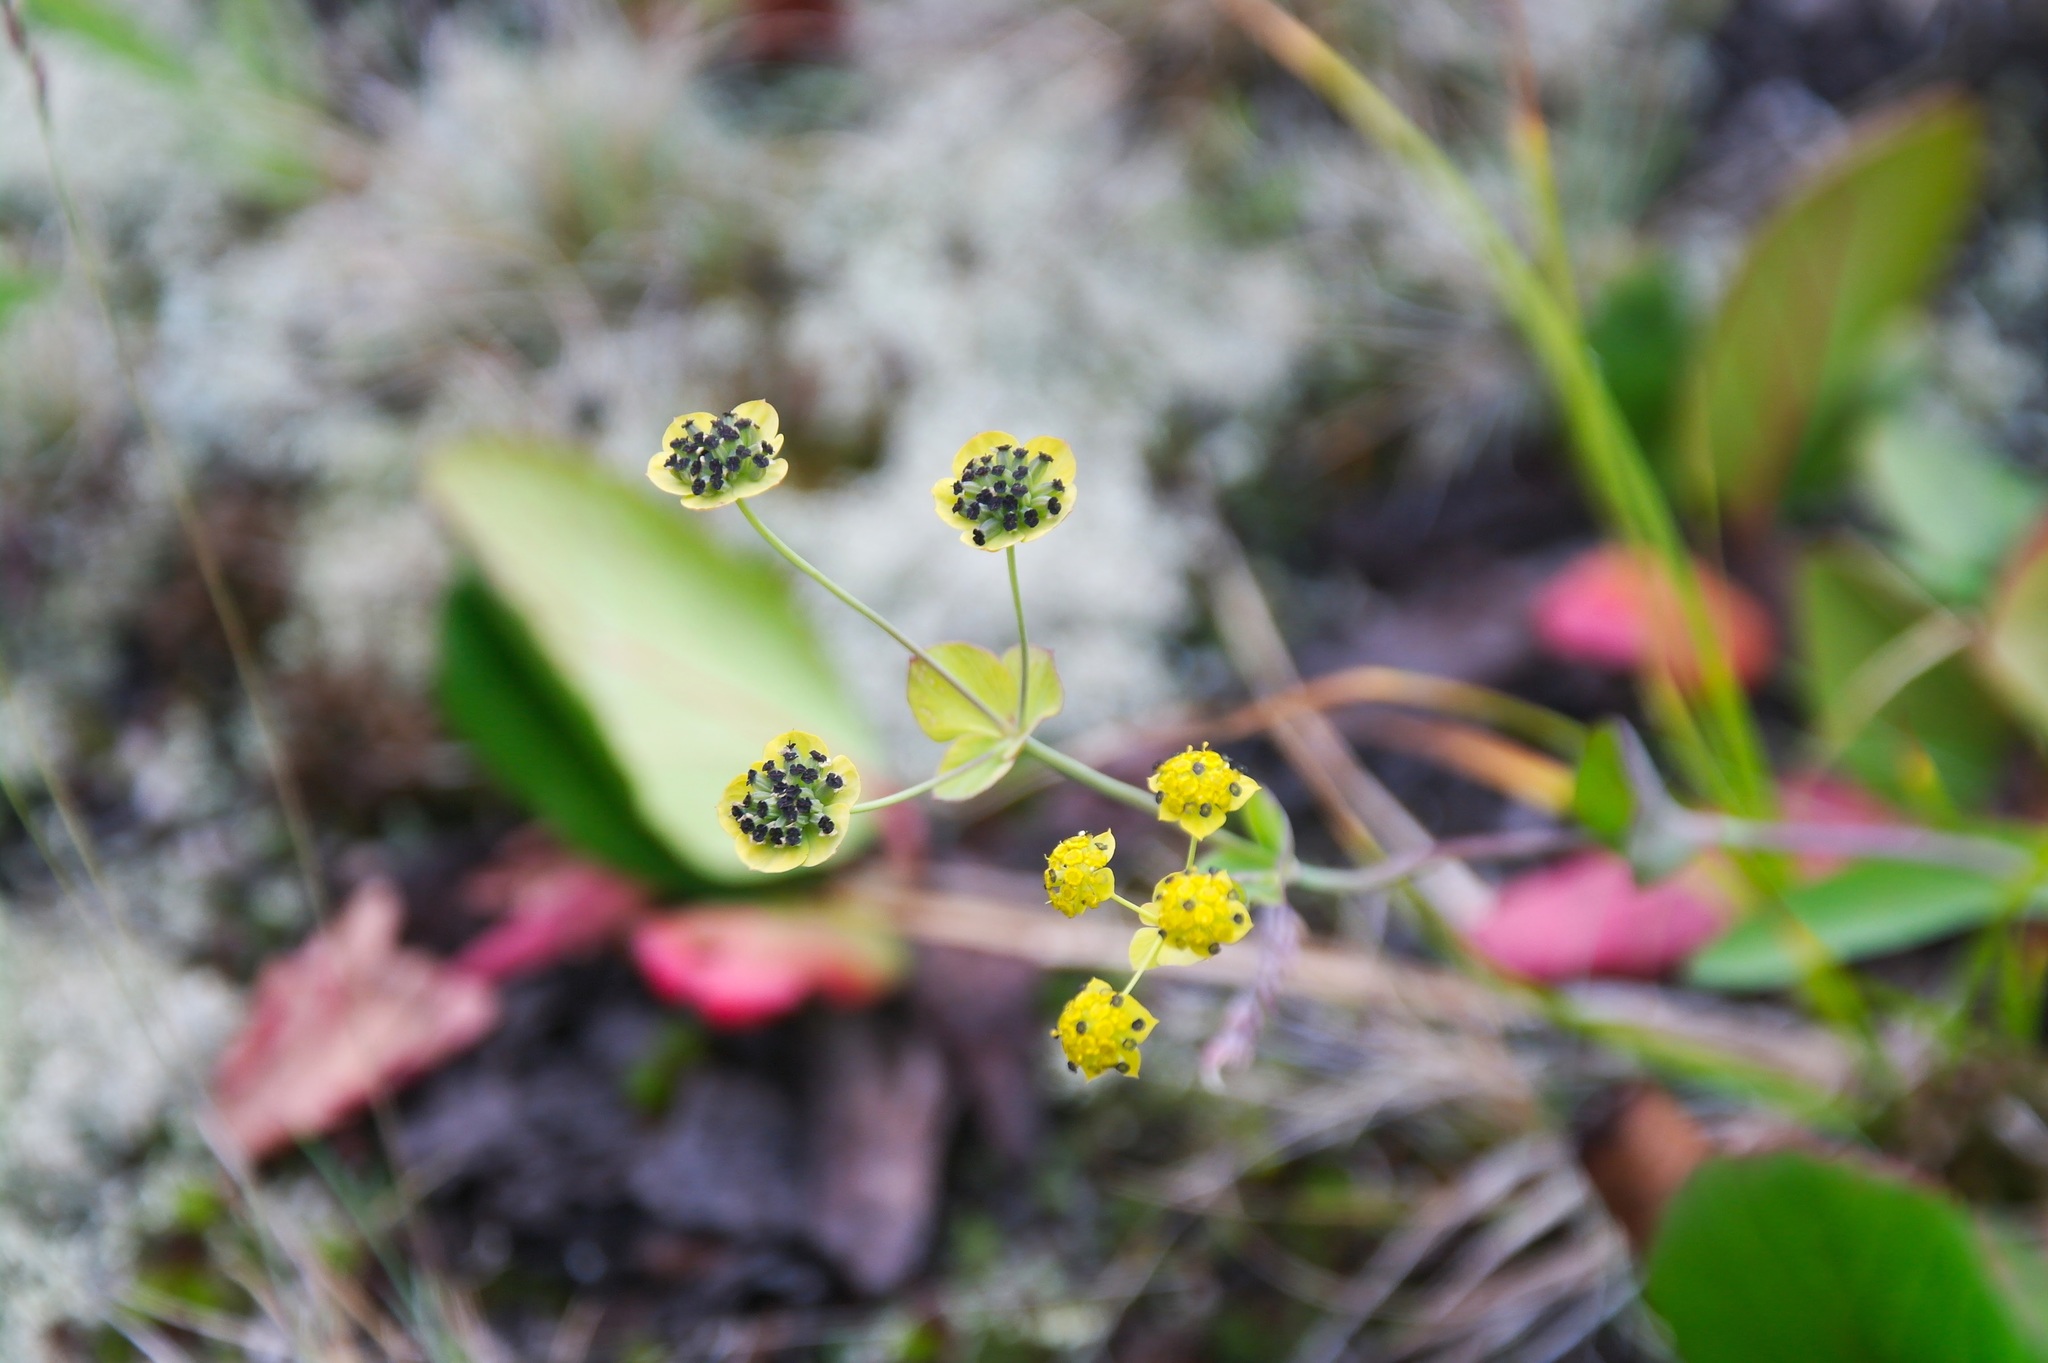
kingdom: Plantae
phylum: Tracheophyta
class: Magnoliopsida
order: Apiales
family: Apiaceae
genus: Bupleurum
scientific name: Bupleurum triradiatum
